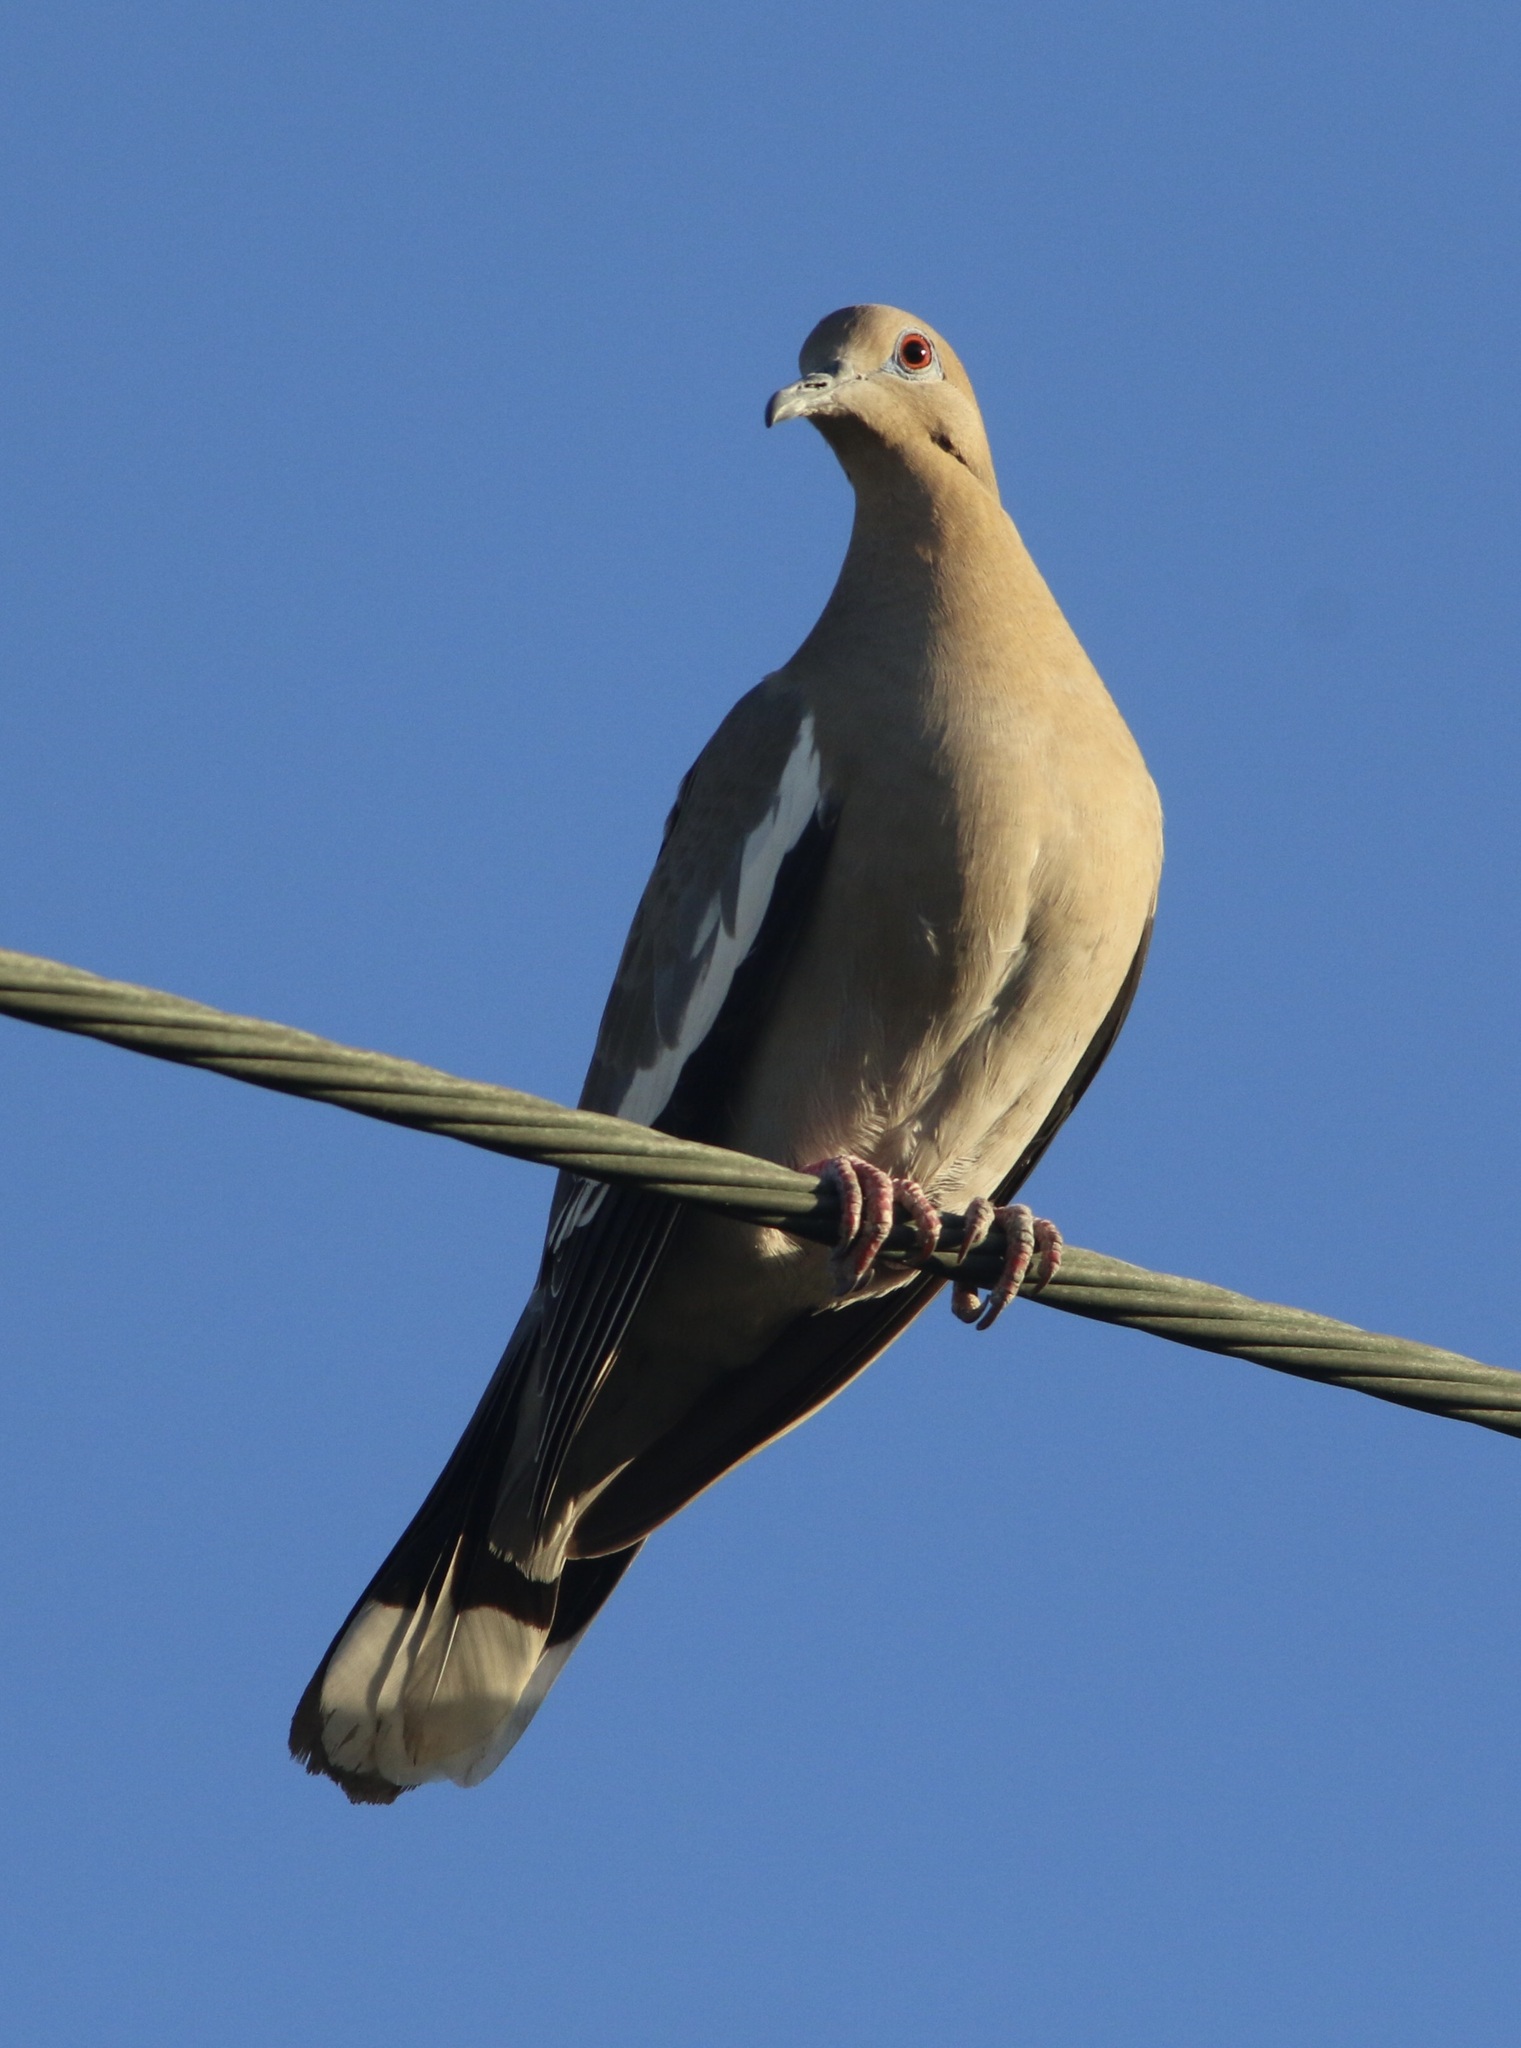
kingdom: Animalia
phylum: Chordata
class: Aves
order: Columbiformes
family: Columbidae
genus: Zenaida
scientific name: Zenaida asiatica
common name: White-winged dove
